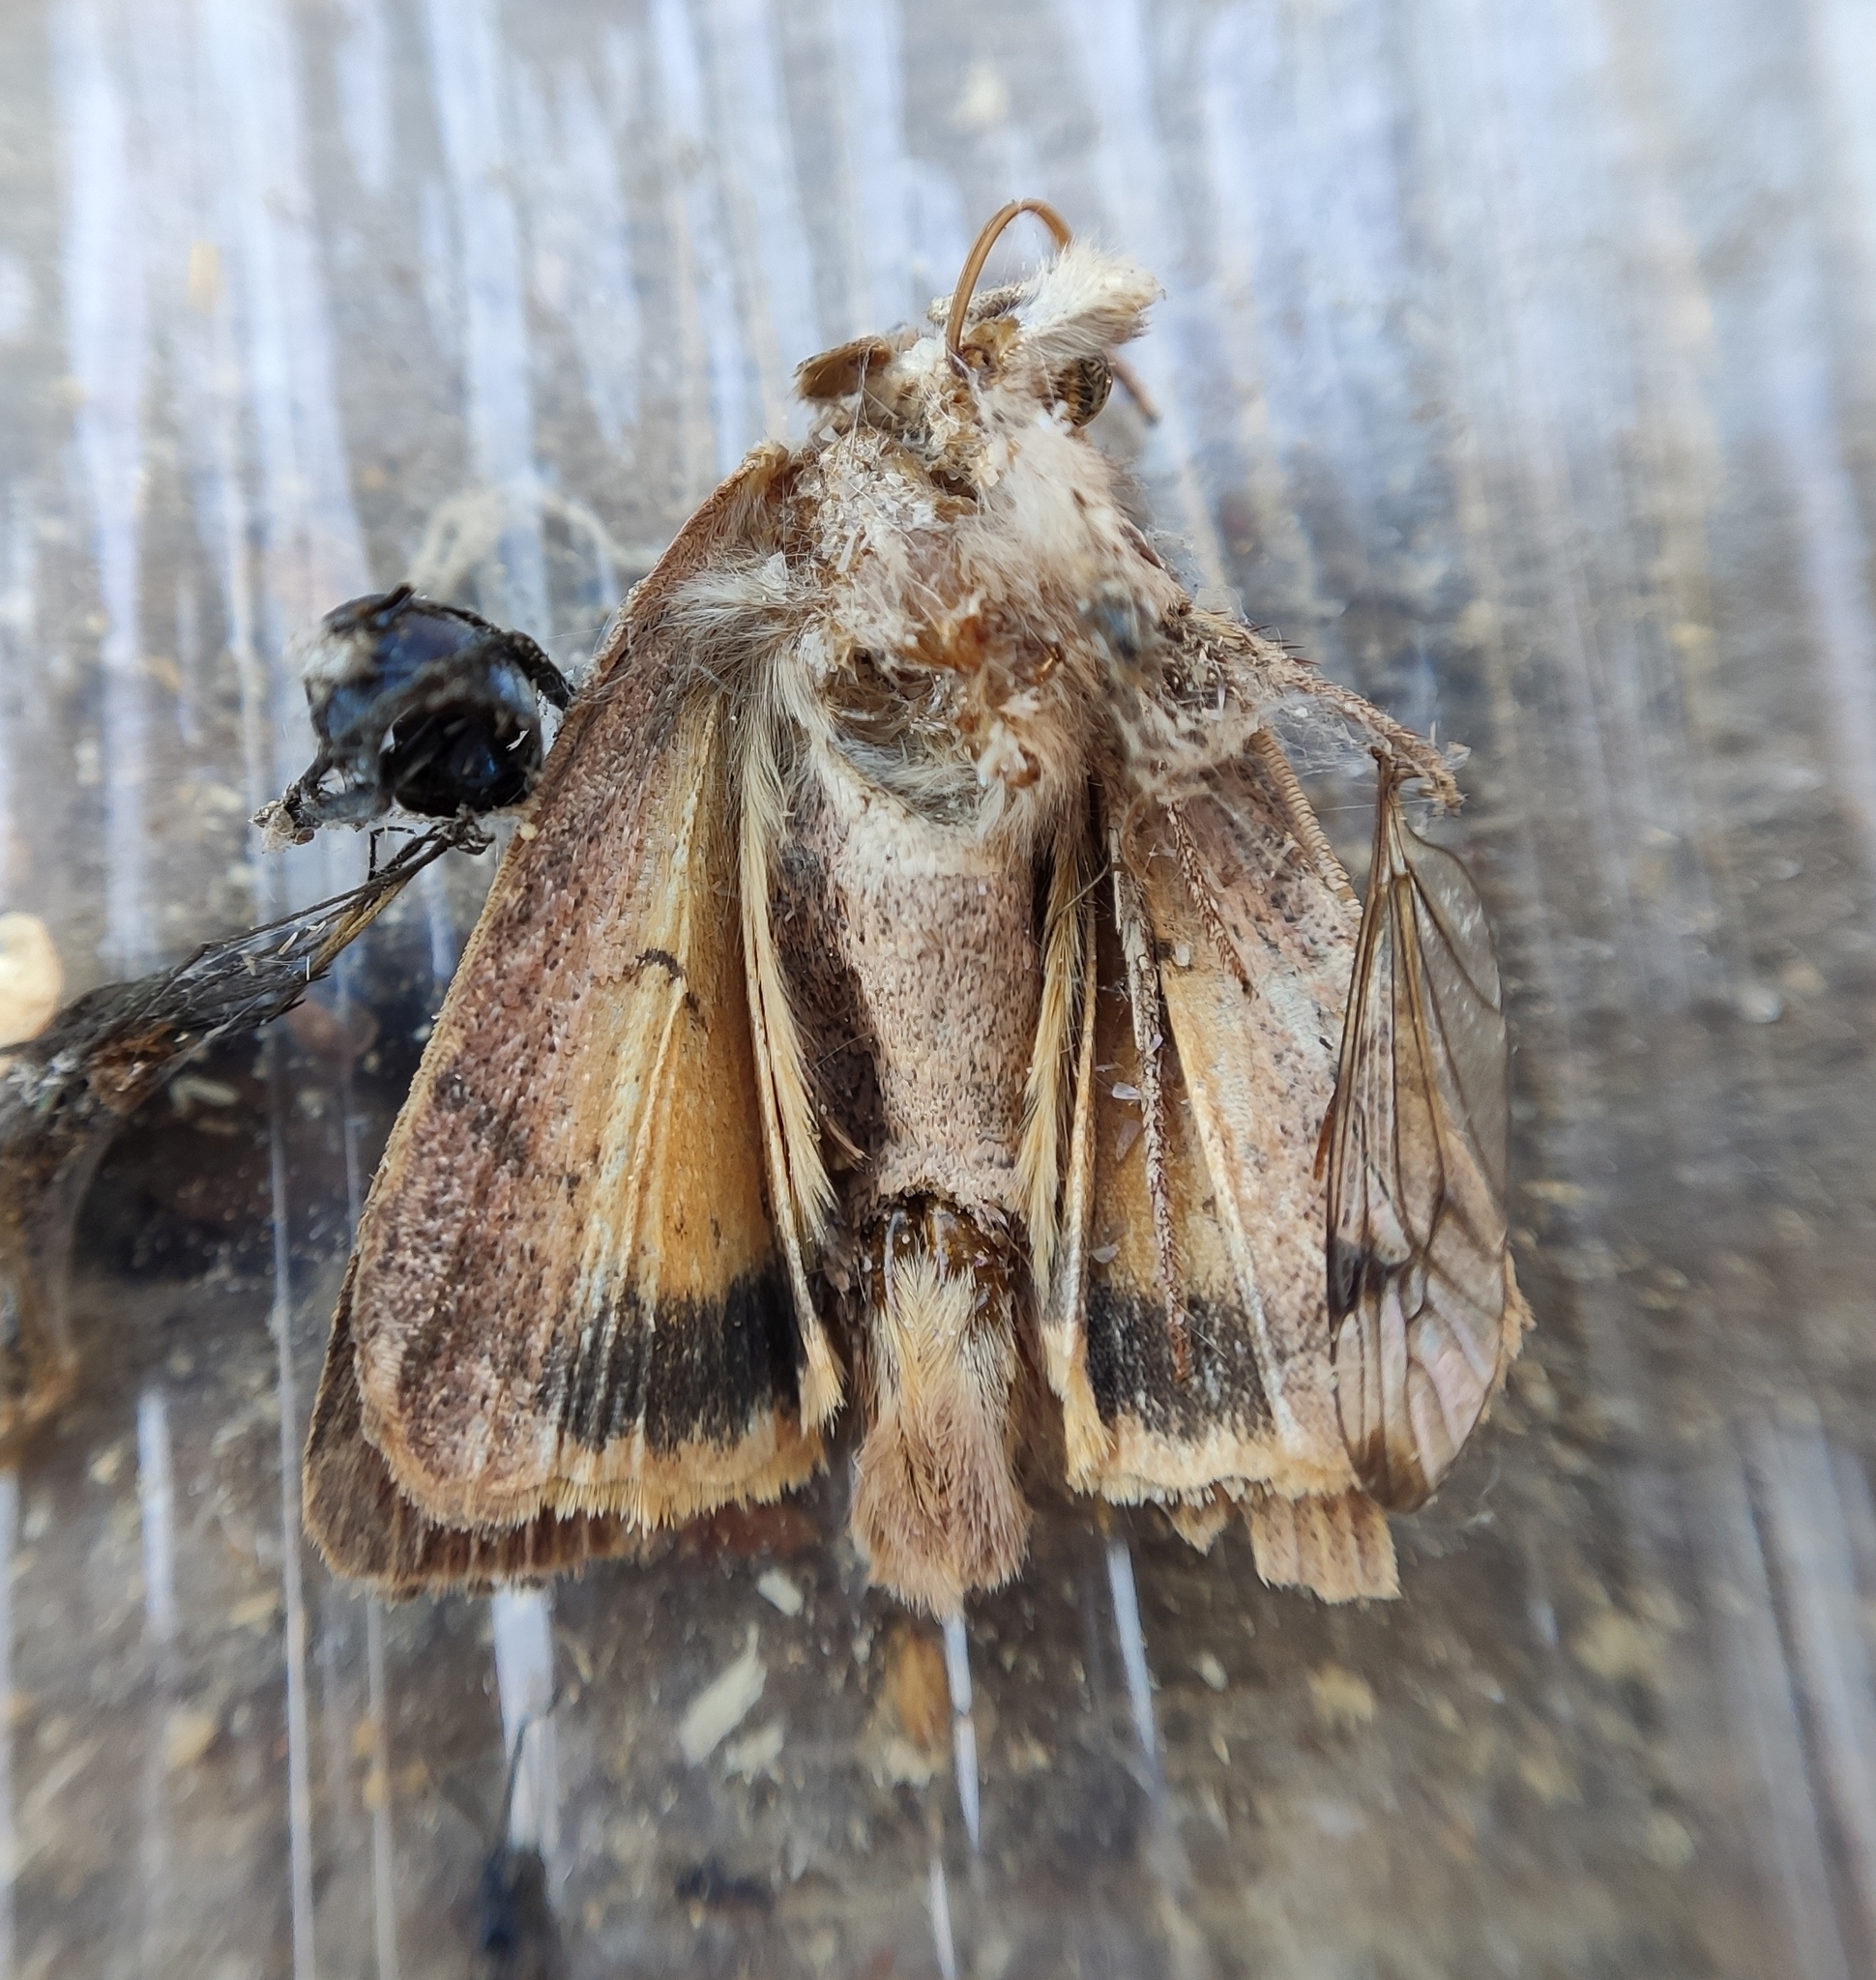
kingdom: Animalia
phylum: Arthropoda
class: Insecta
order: Lepidoptera
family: Noctuidae
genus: Noctua
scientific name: Noctua comes
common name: Lesser yellow underwing
